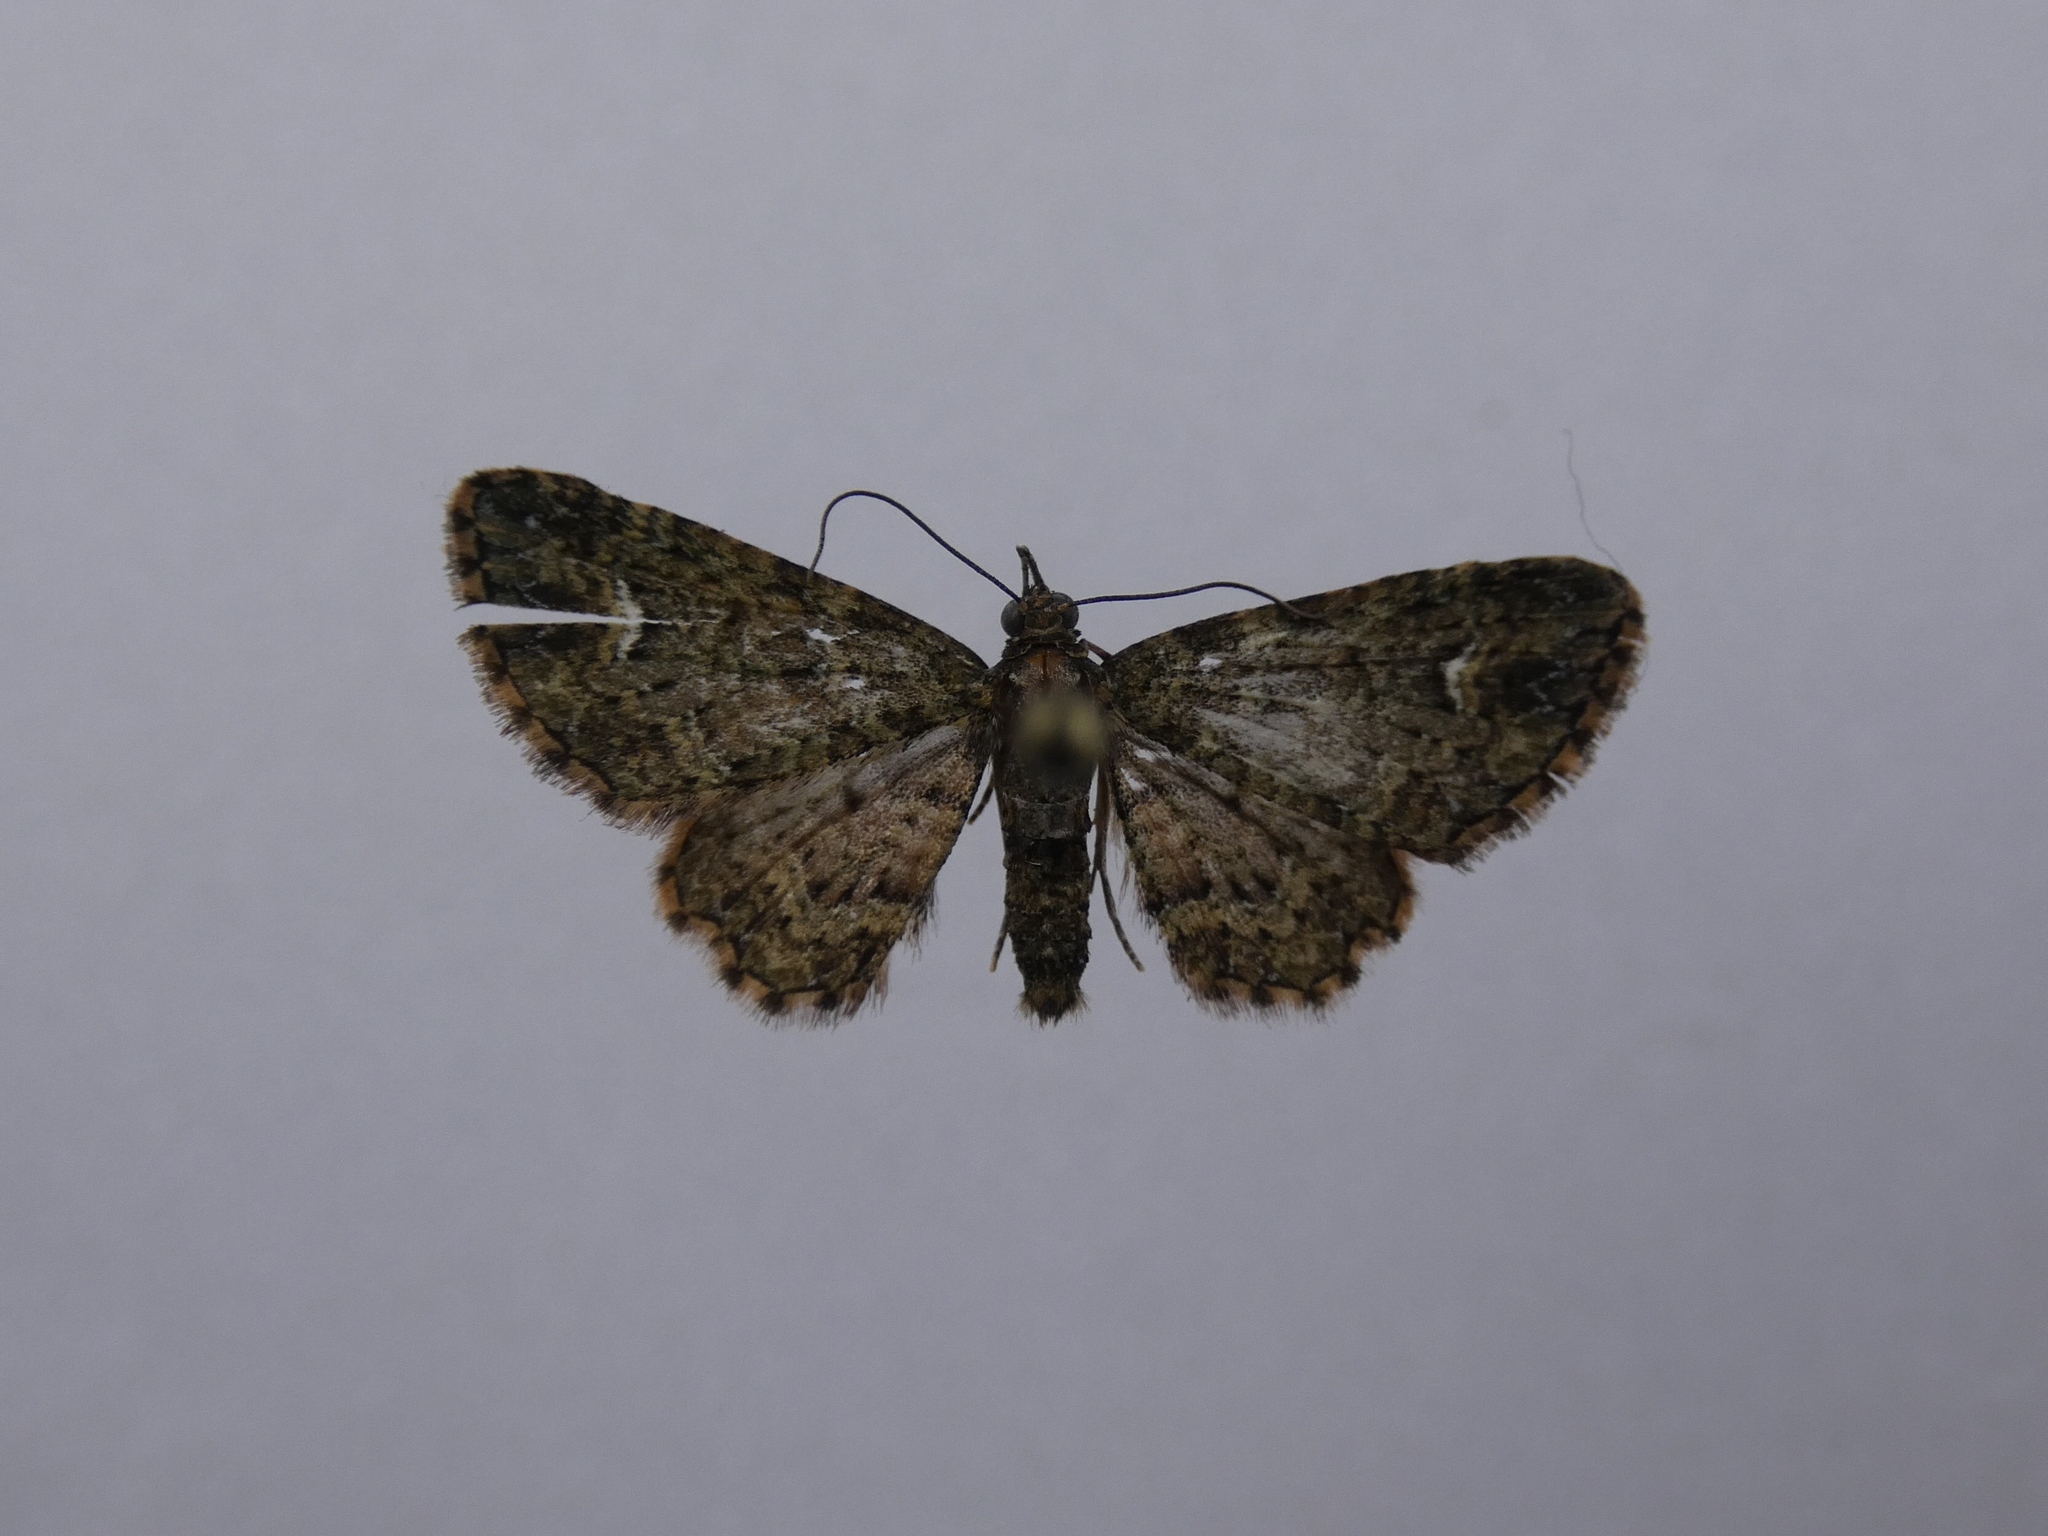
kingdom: Animalia
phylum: Arthropoda
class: Insecta
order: Lepidoptera
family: Geometridae
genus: Pasiphilodes
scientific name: Pasiphilodes testulata
